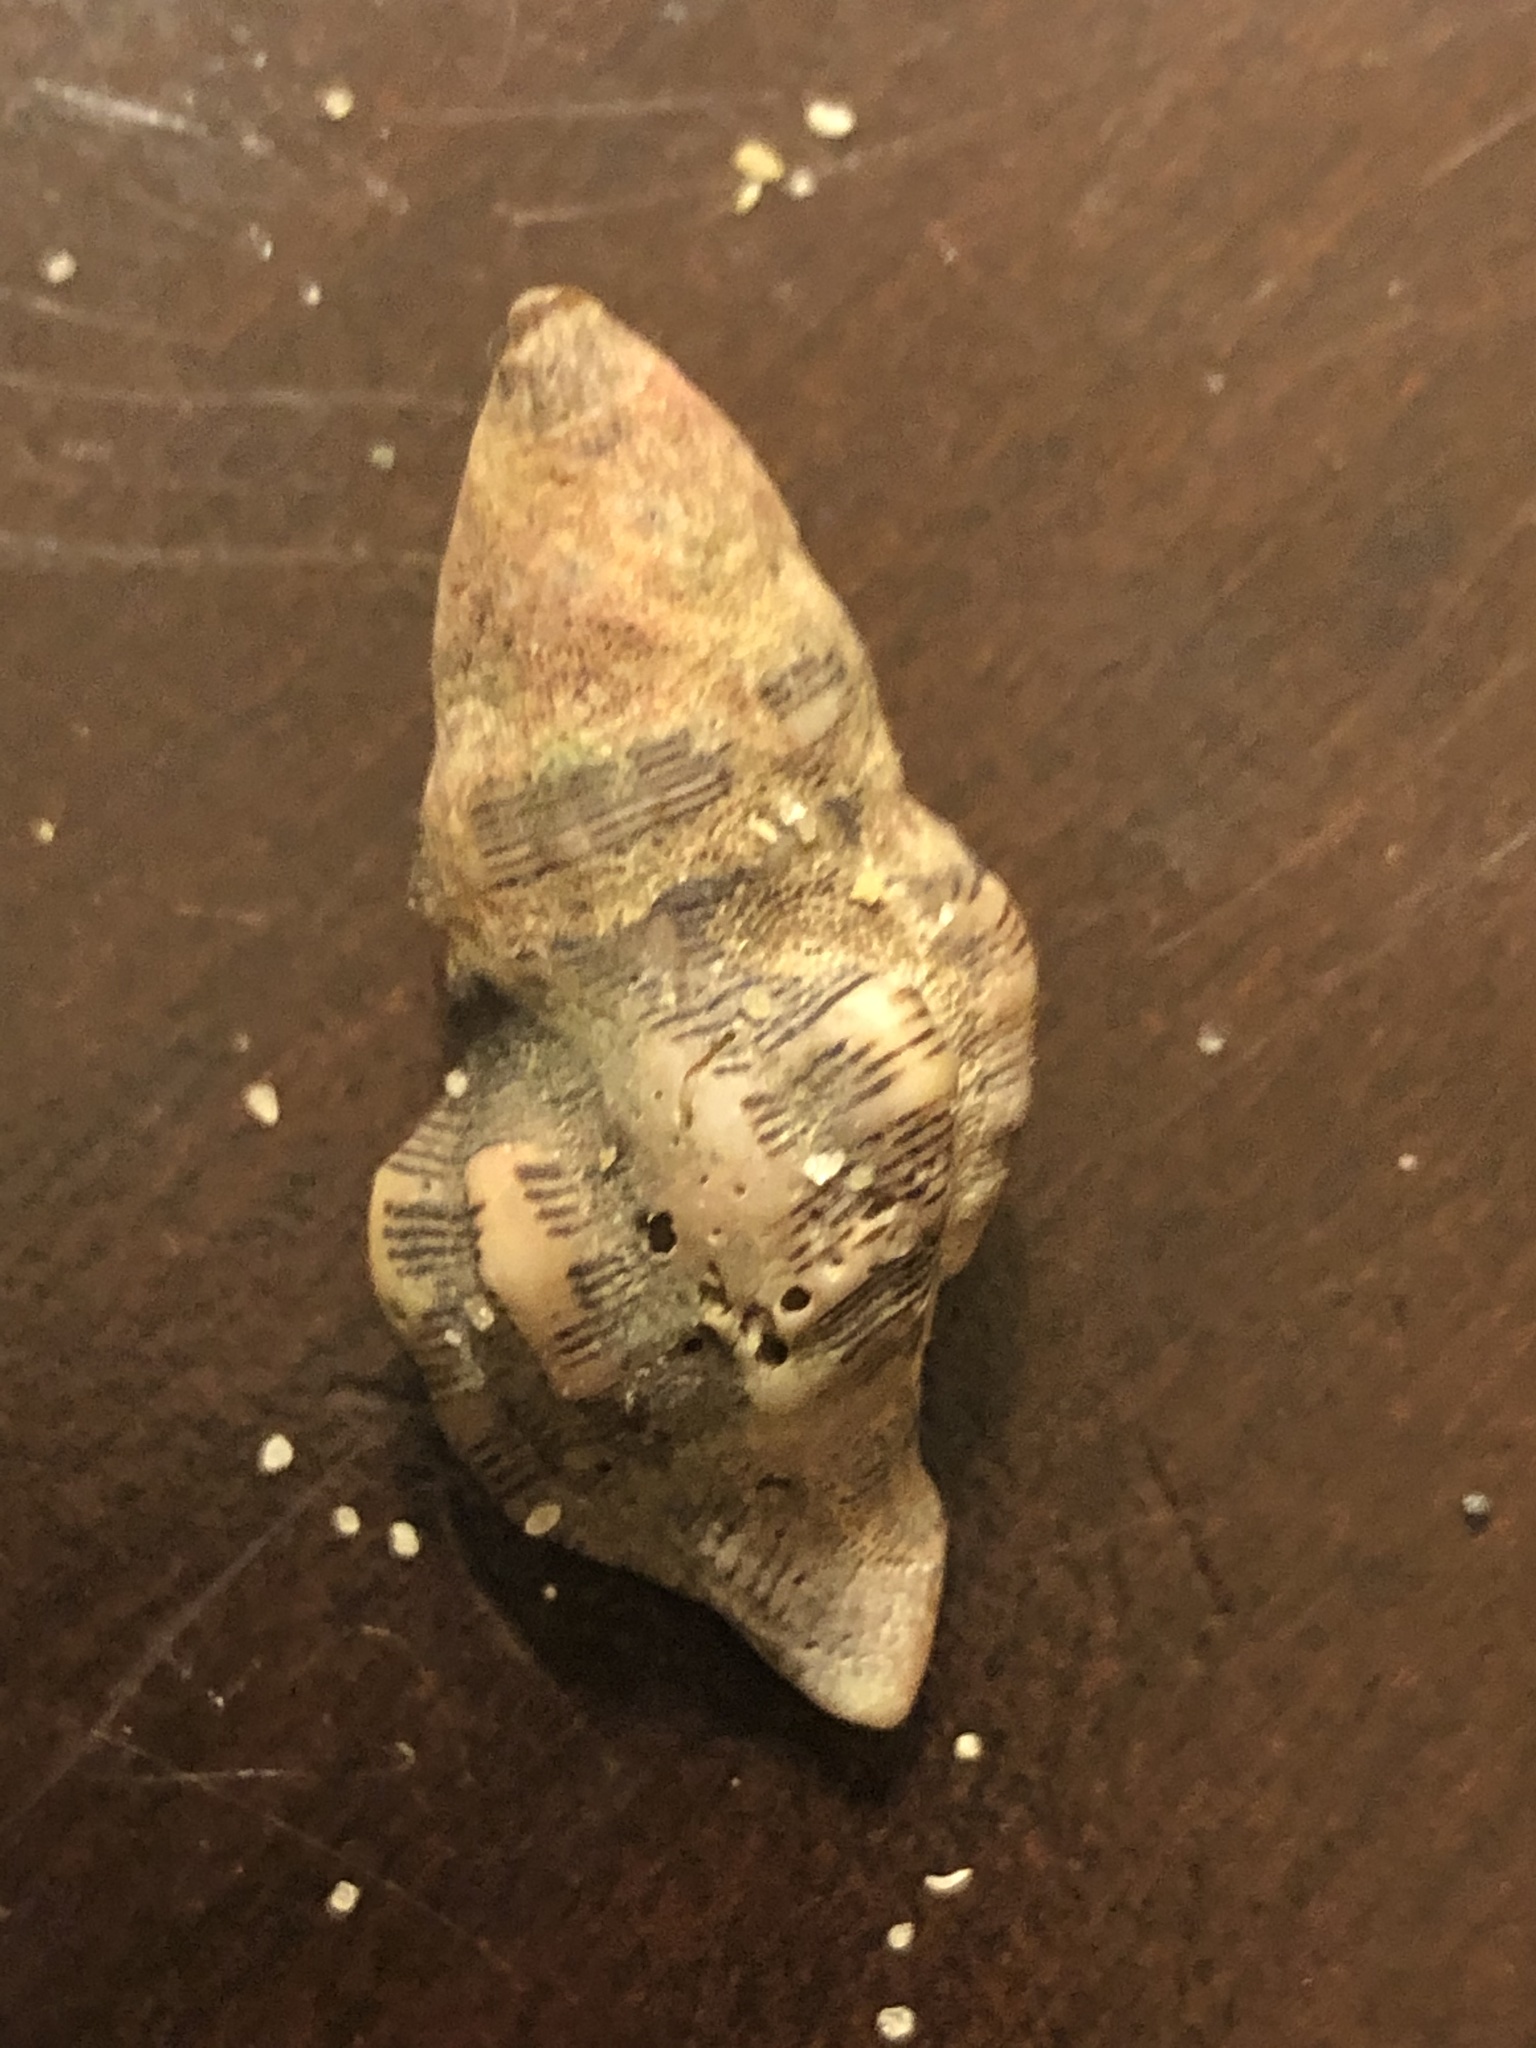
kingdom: Animalia
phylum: Mollusca
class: Gastropoda
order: Neogastropoda
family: Muricidae
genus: Roperia
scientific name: Roperia poulsoni
